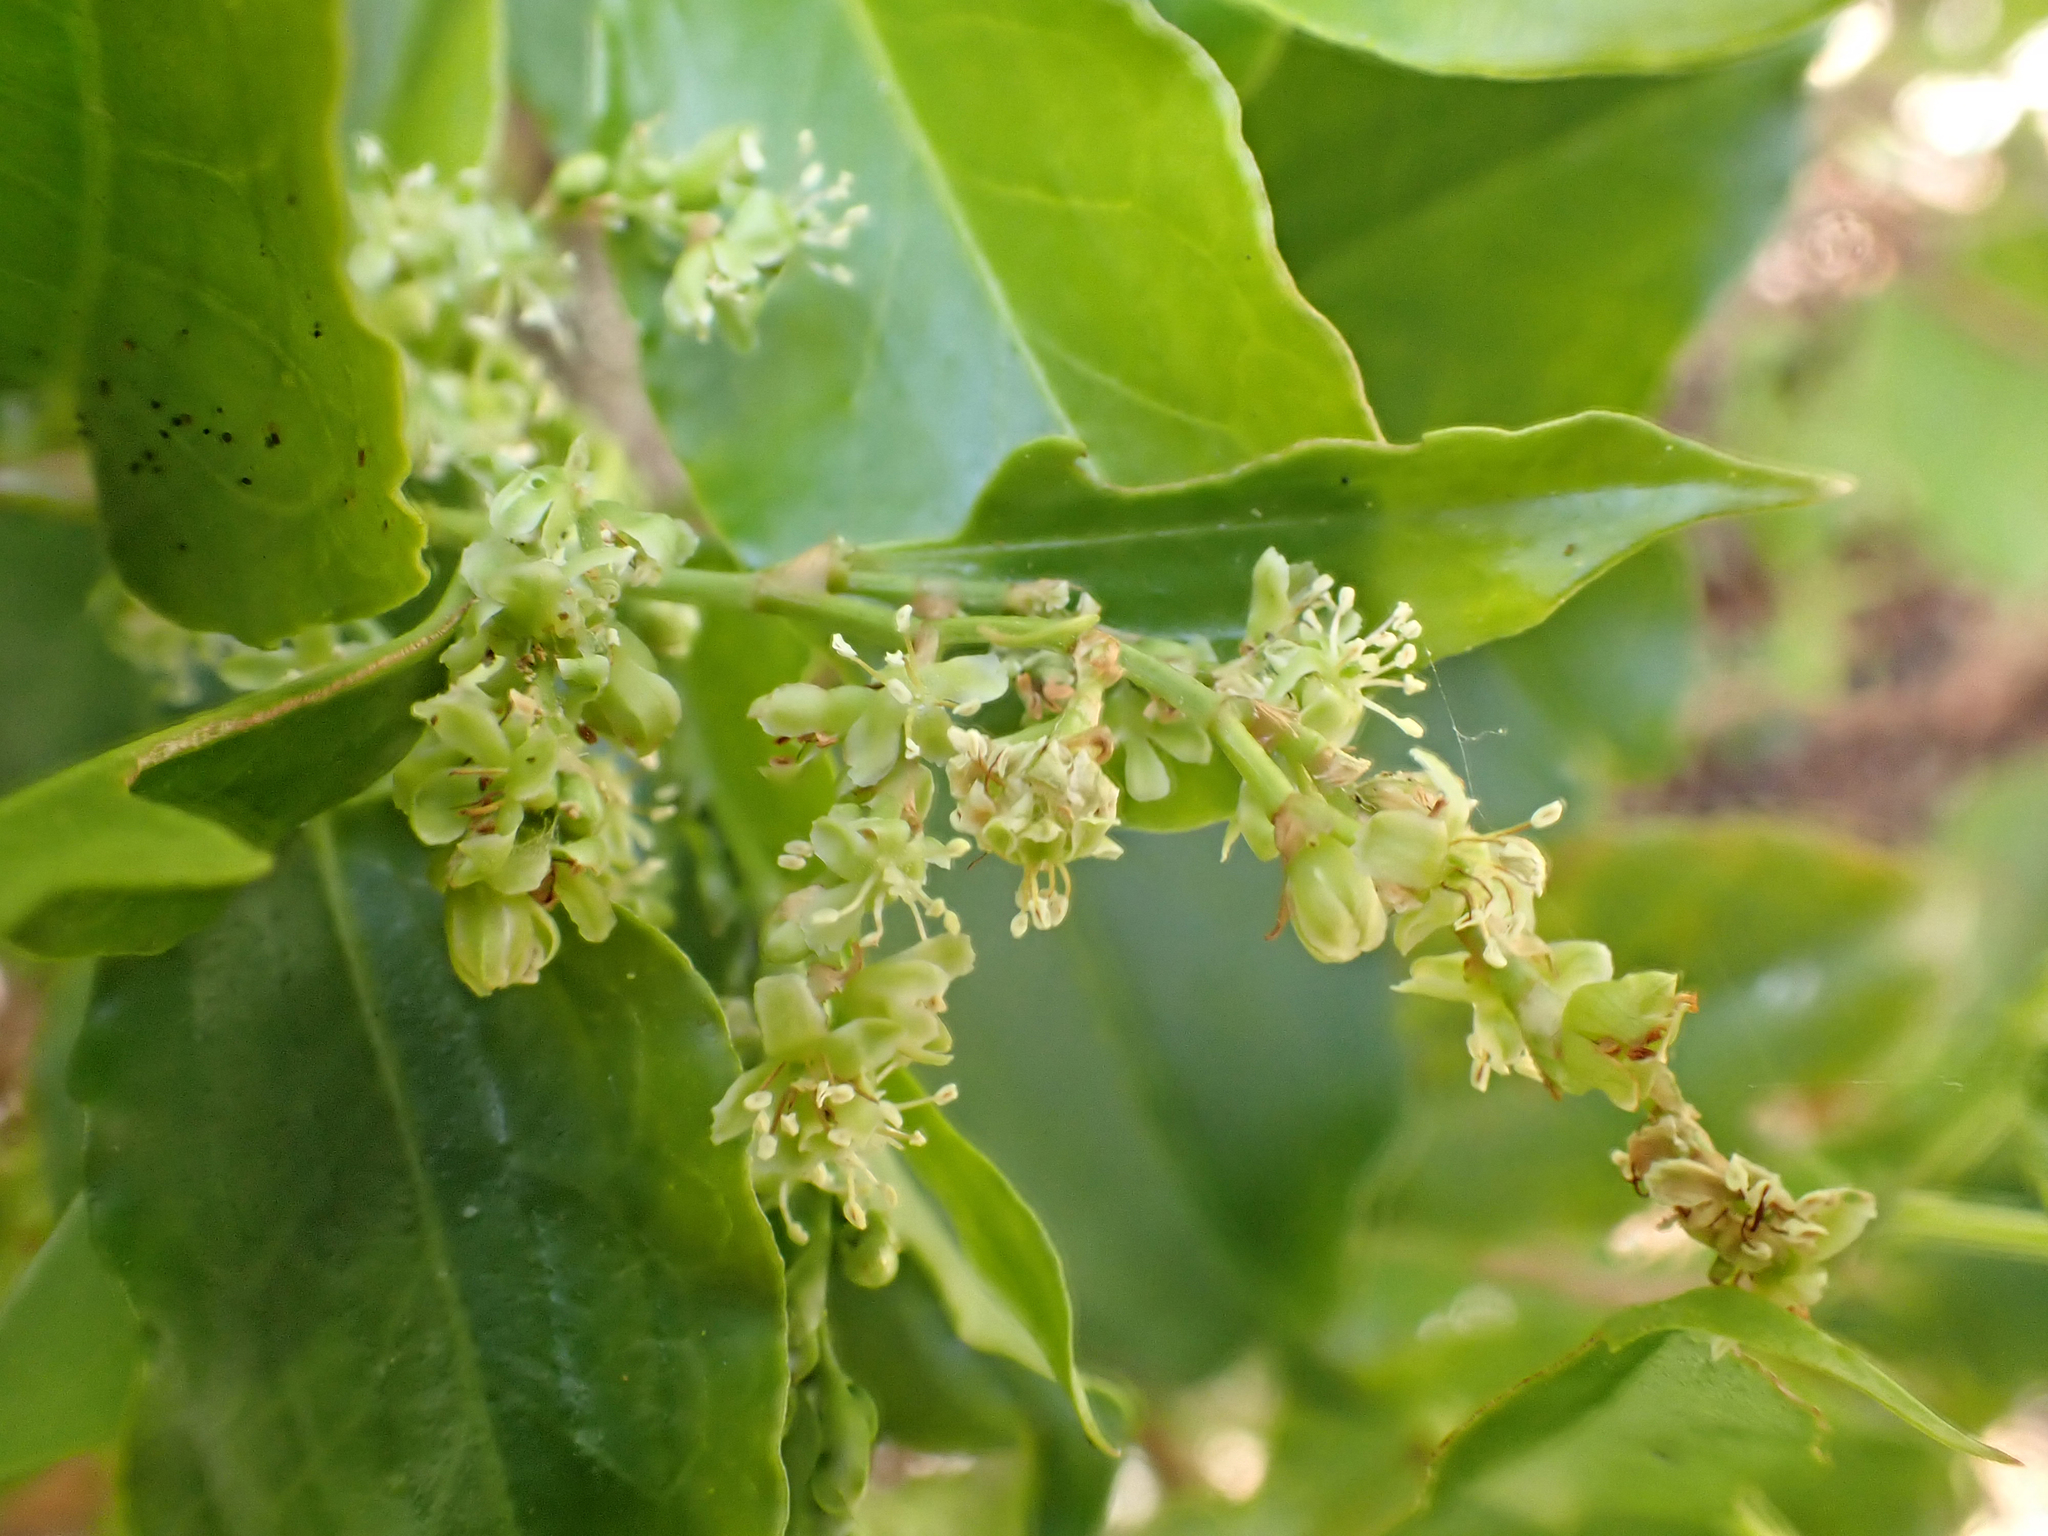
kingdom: Plantae
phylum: Tracheophyta
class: Magnoliopsida
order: Caryophyllales
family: Polygonaceae
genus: Muehlenbeckia
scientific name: Muehlenbeckia australis
